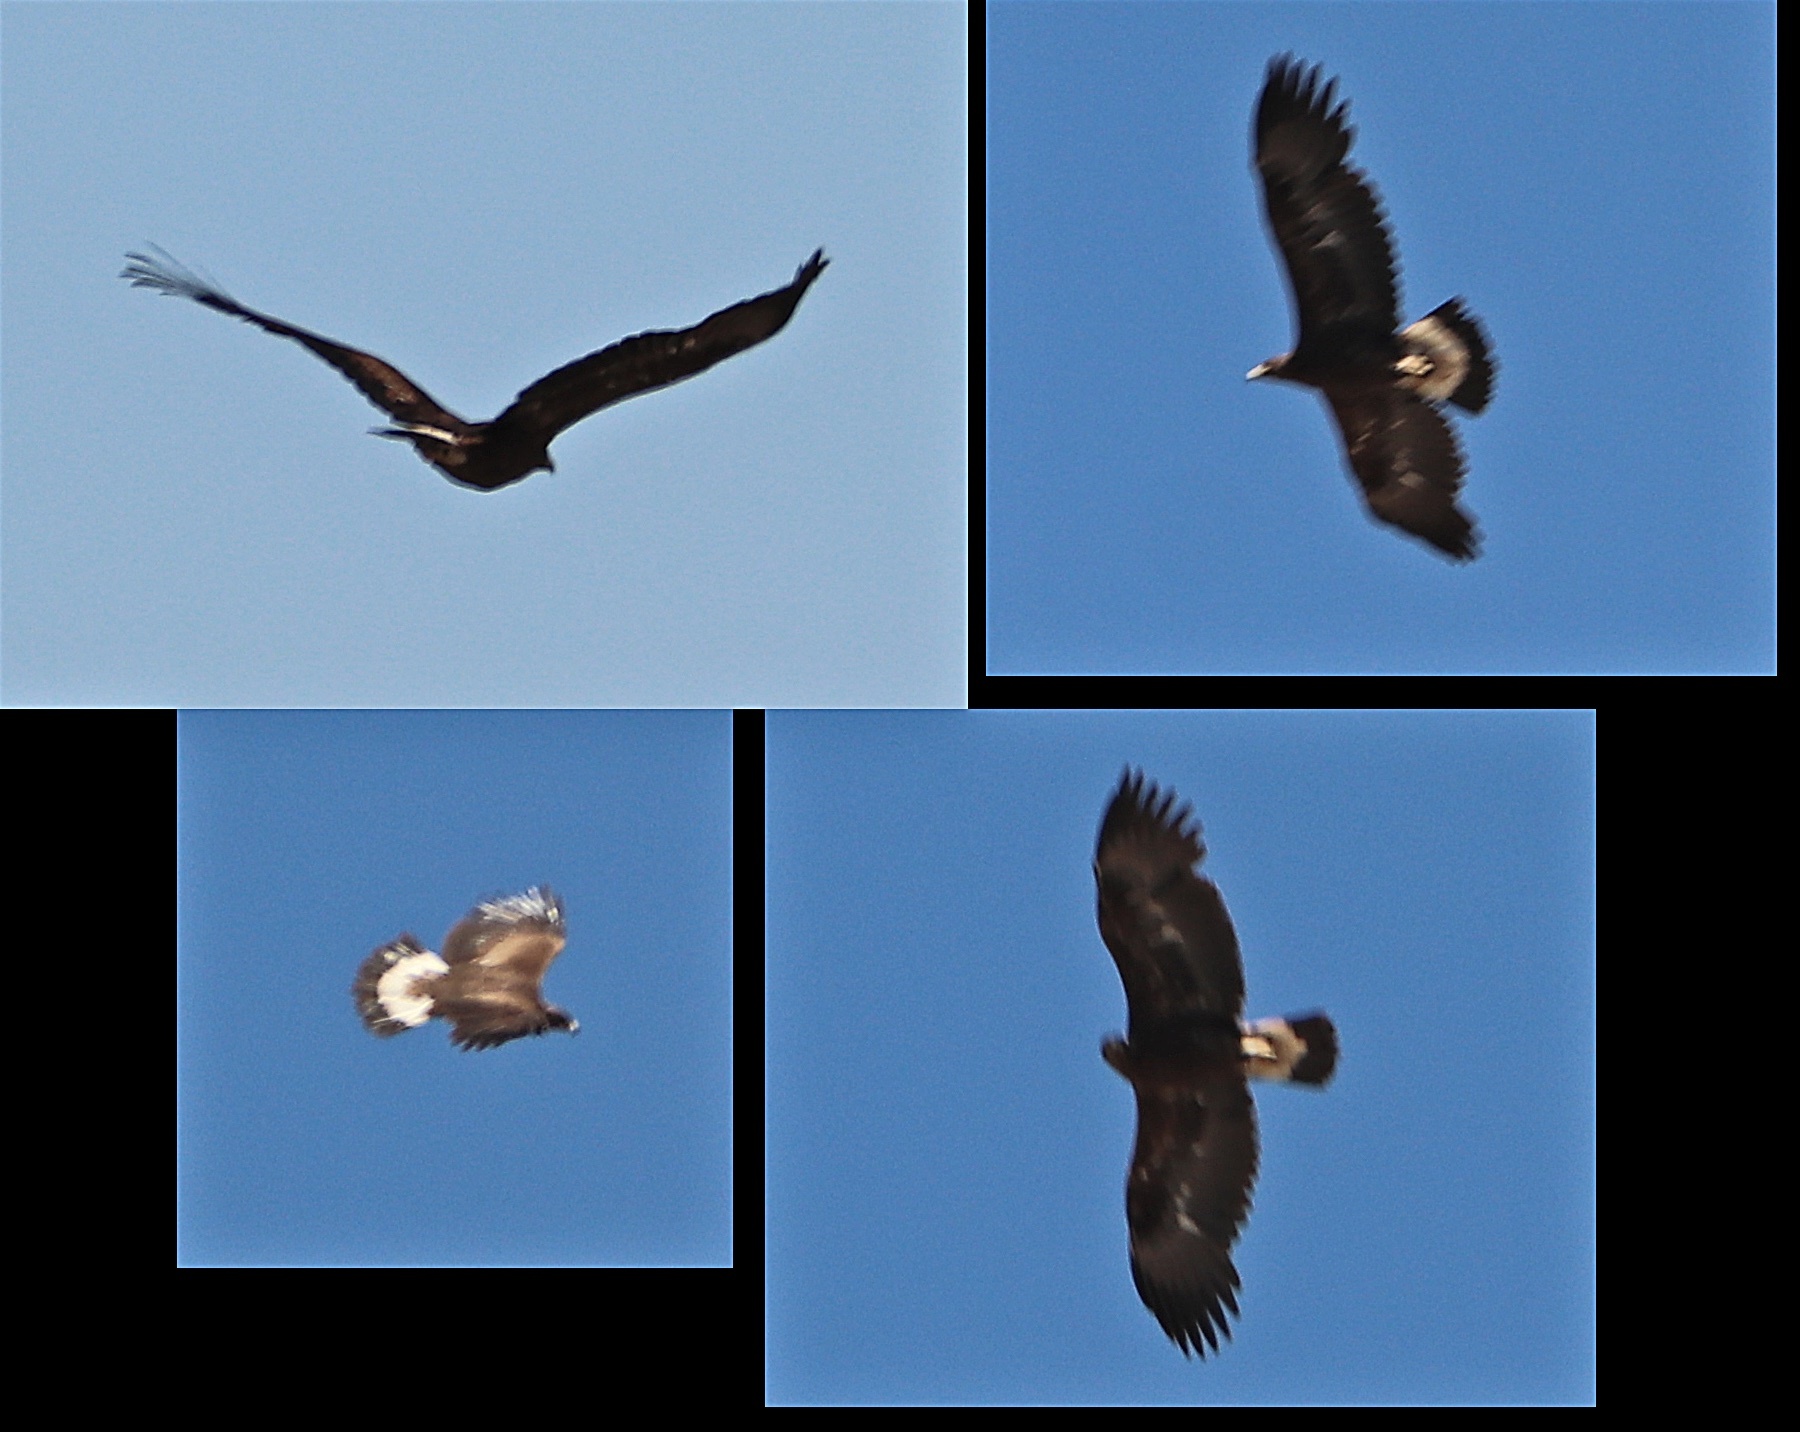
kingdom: Animalia
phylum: Chordata
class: Aves
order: Accipitriformes
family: Accipitridae
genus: Aquila
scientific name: Aquila chrysaetos
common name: Golden eagle
